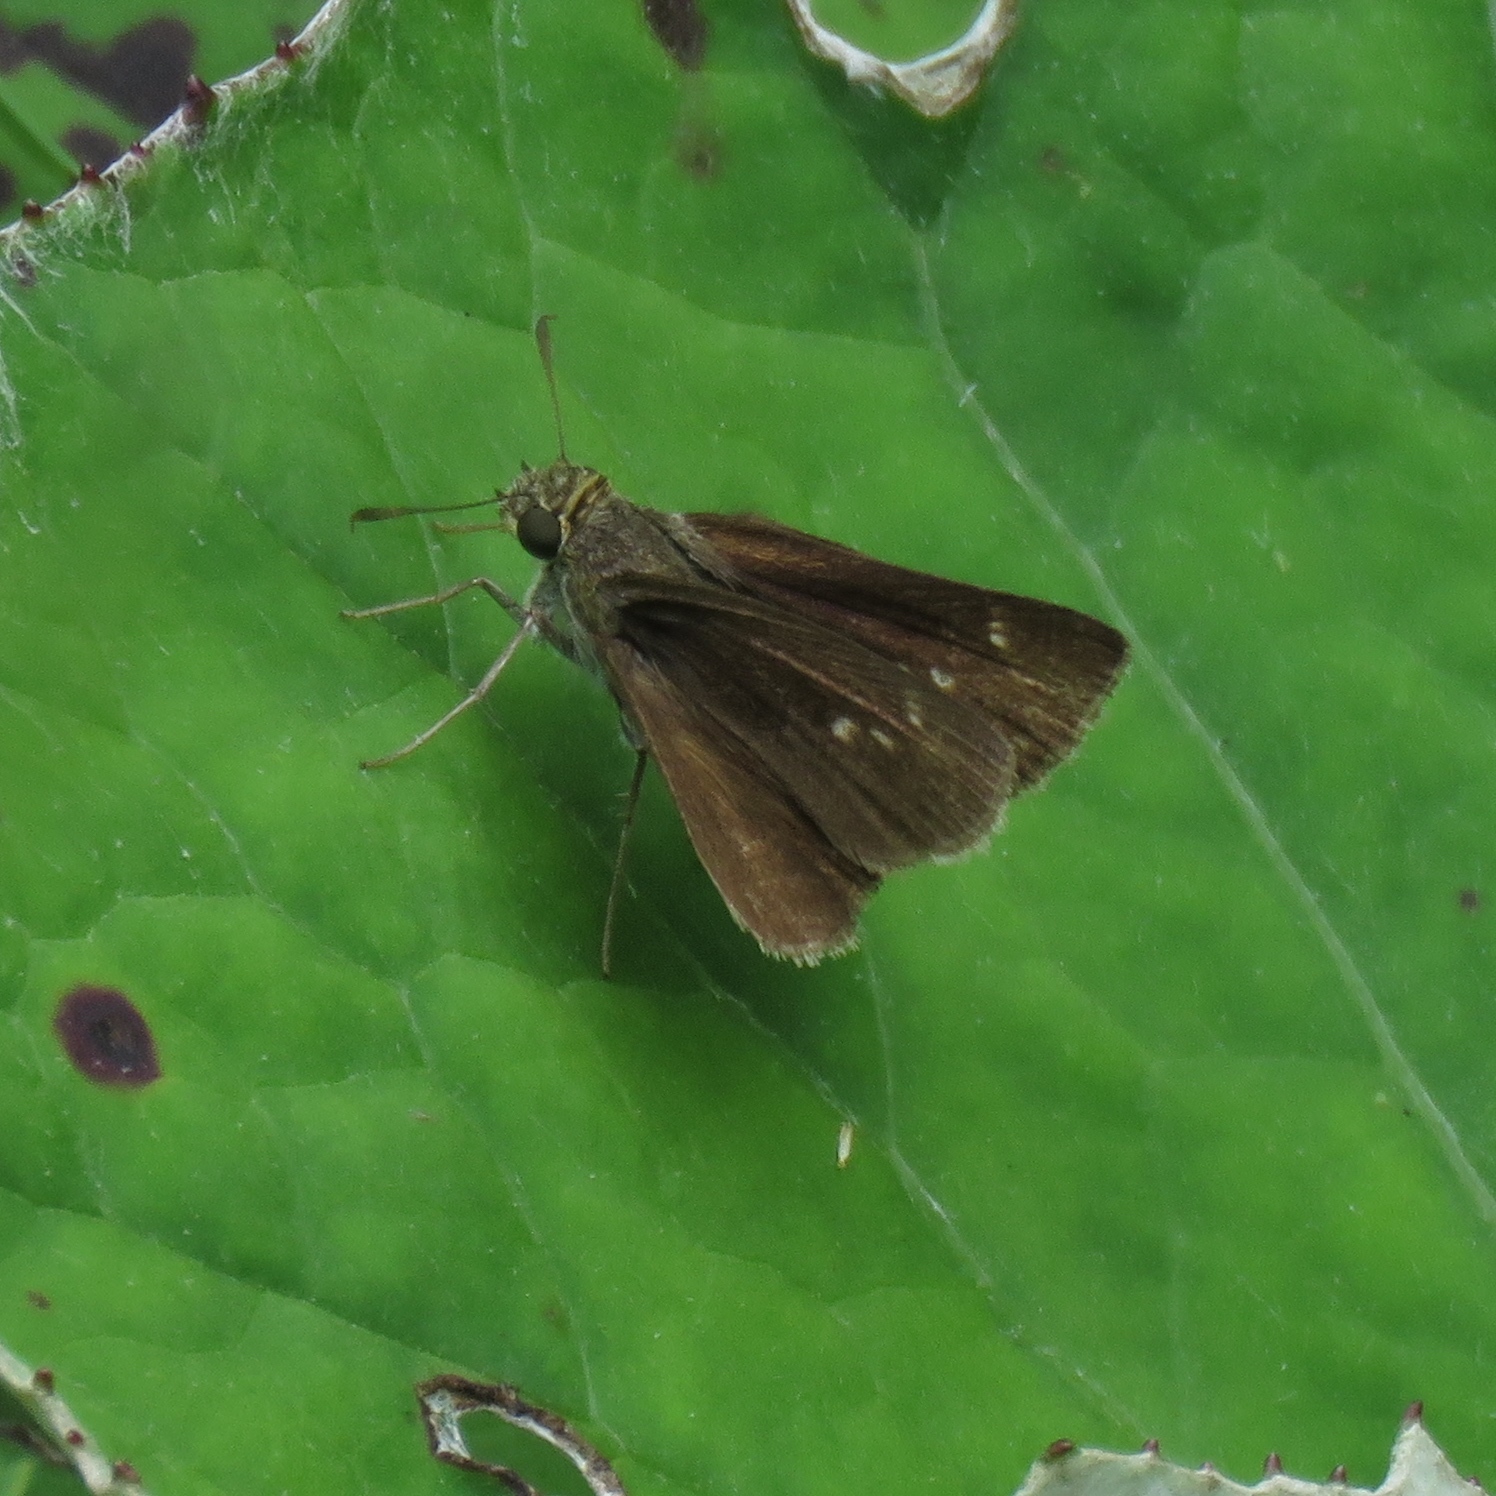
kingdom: Animalia
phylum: Arthropoda
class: Insecta
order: Lepidoptera
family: Hesperiidae
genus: Euphyes
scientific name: Euphyes vestris
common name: Dun skipper
